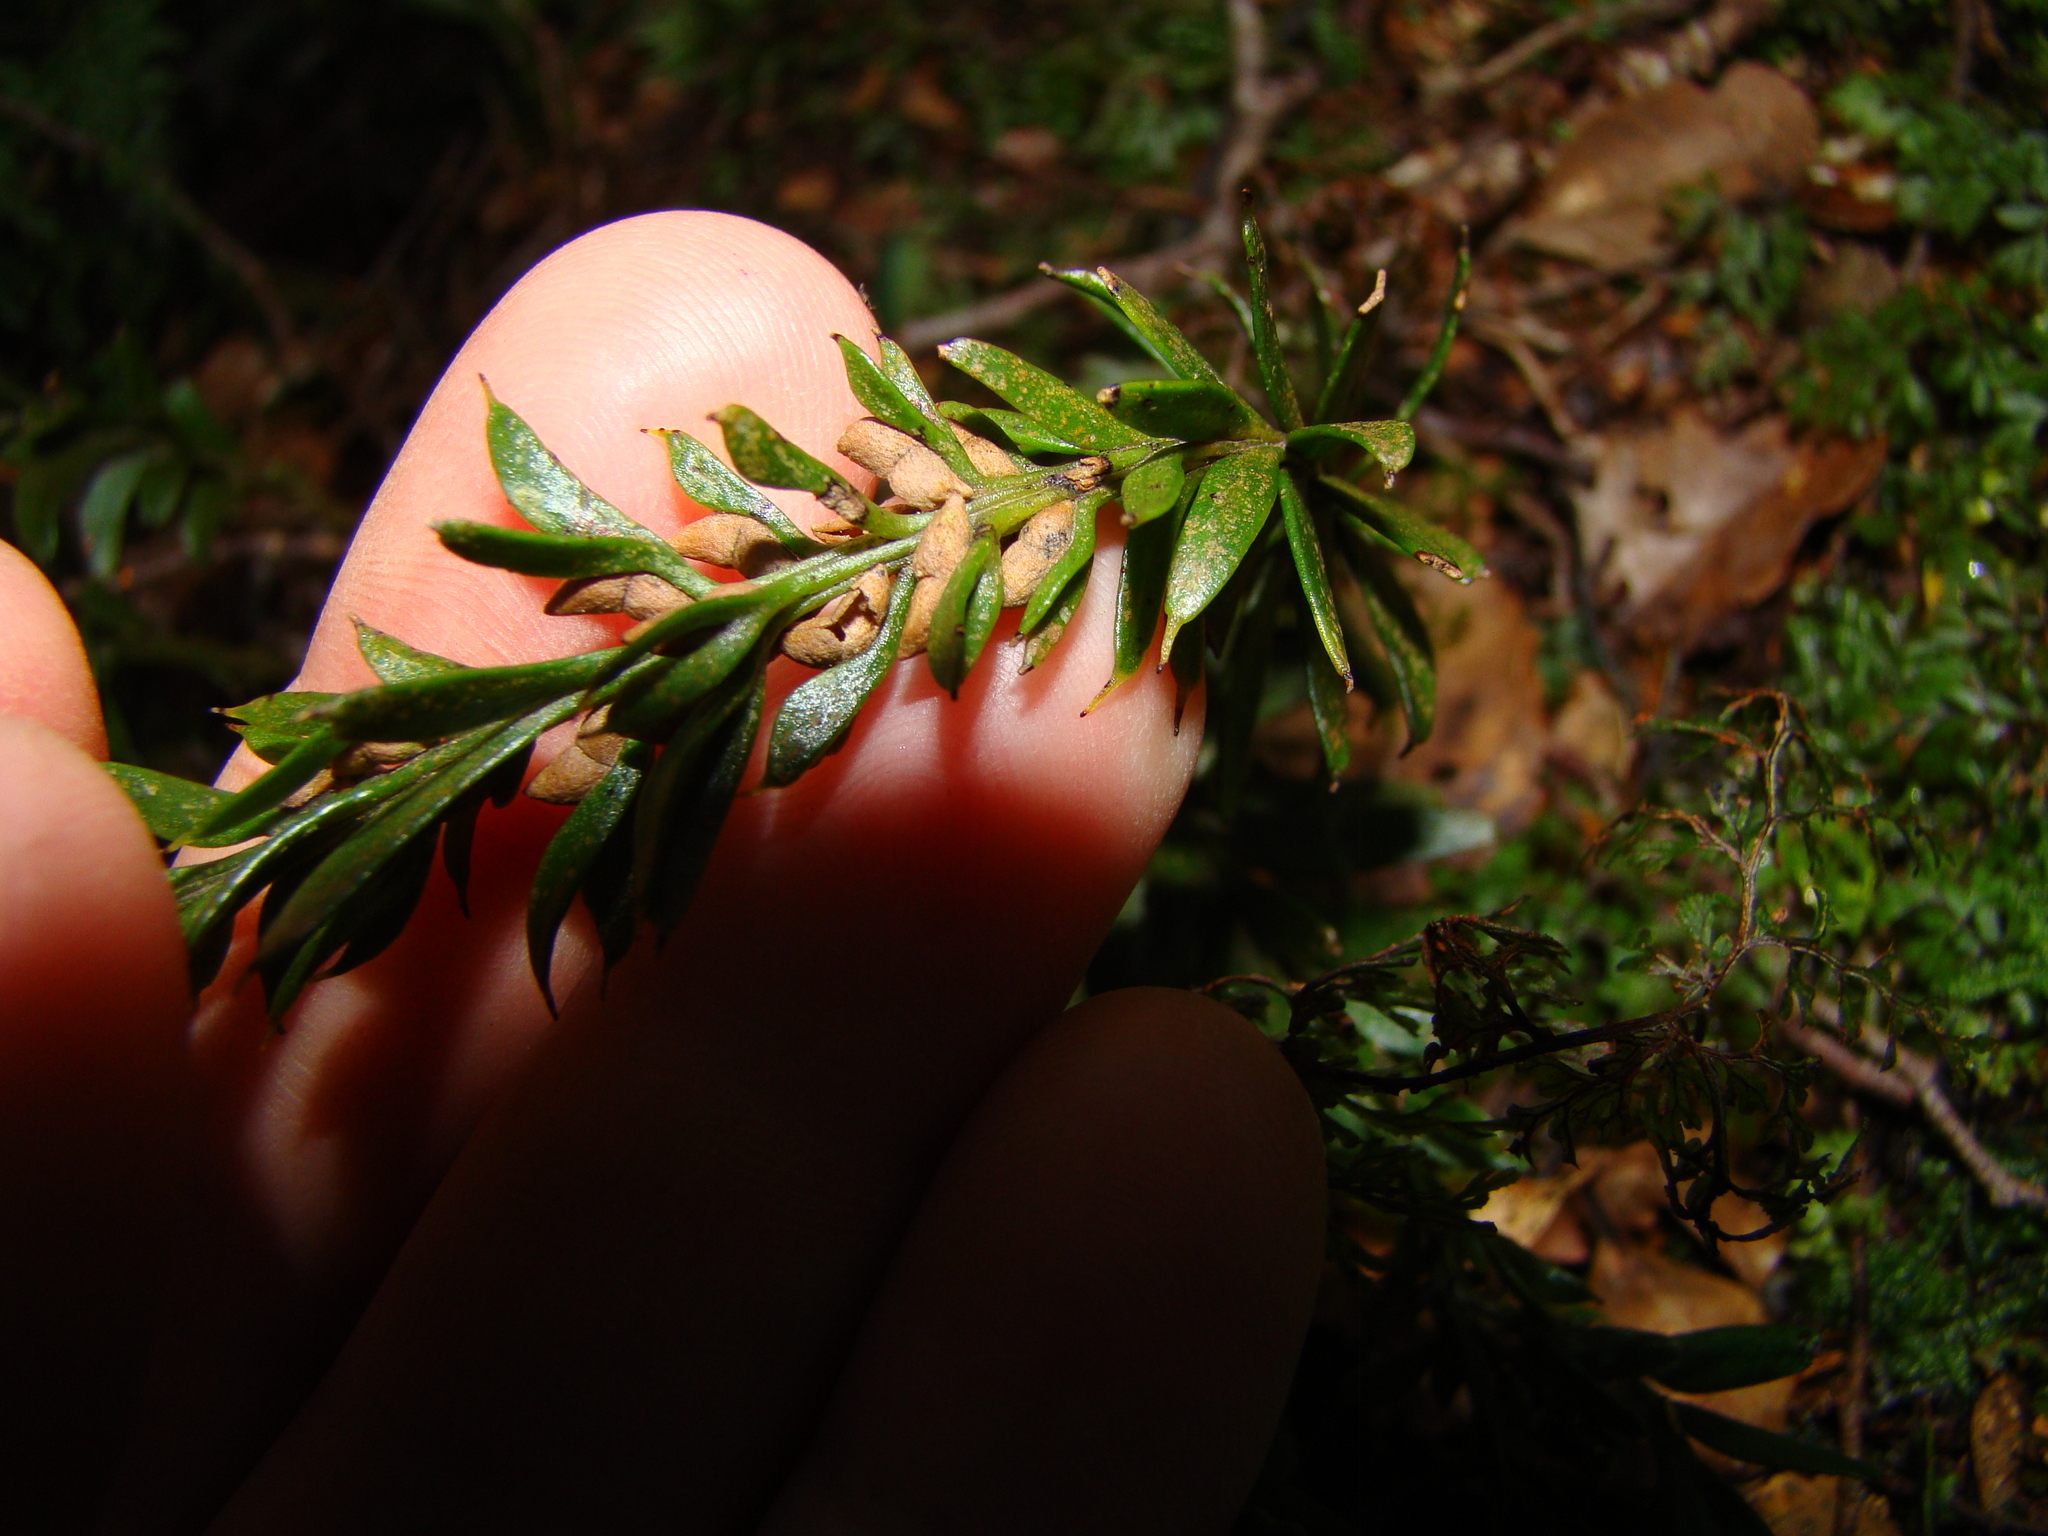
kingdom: Plantae
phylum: Tracheophyta
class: Polypodiopsida
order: Psilotales
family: Psilotaceae
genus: Tmesipteris
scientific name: Tmesipteris tannensis
